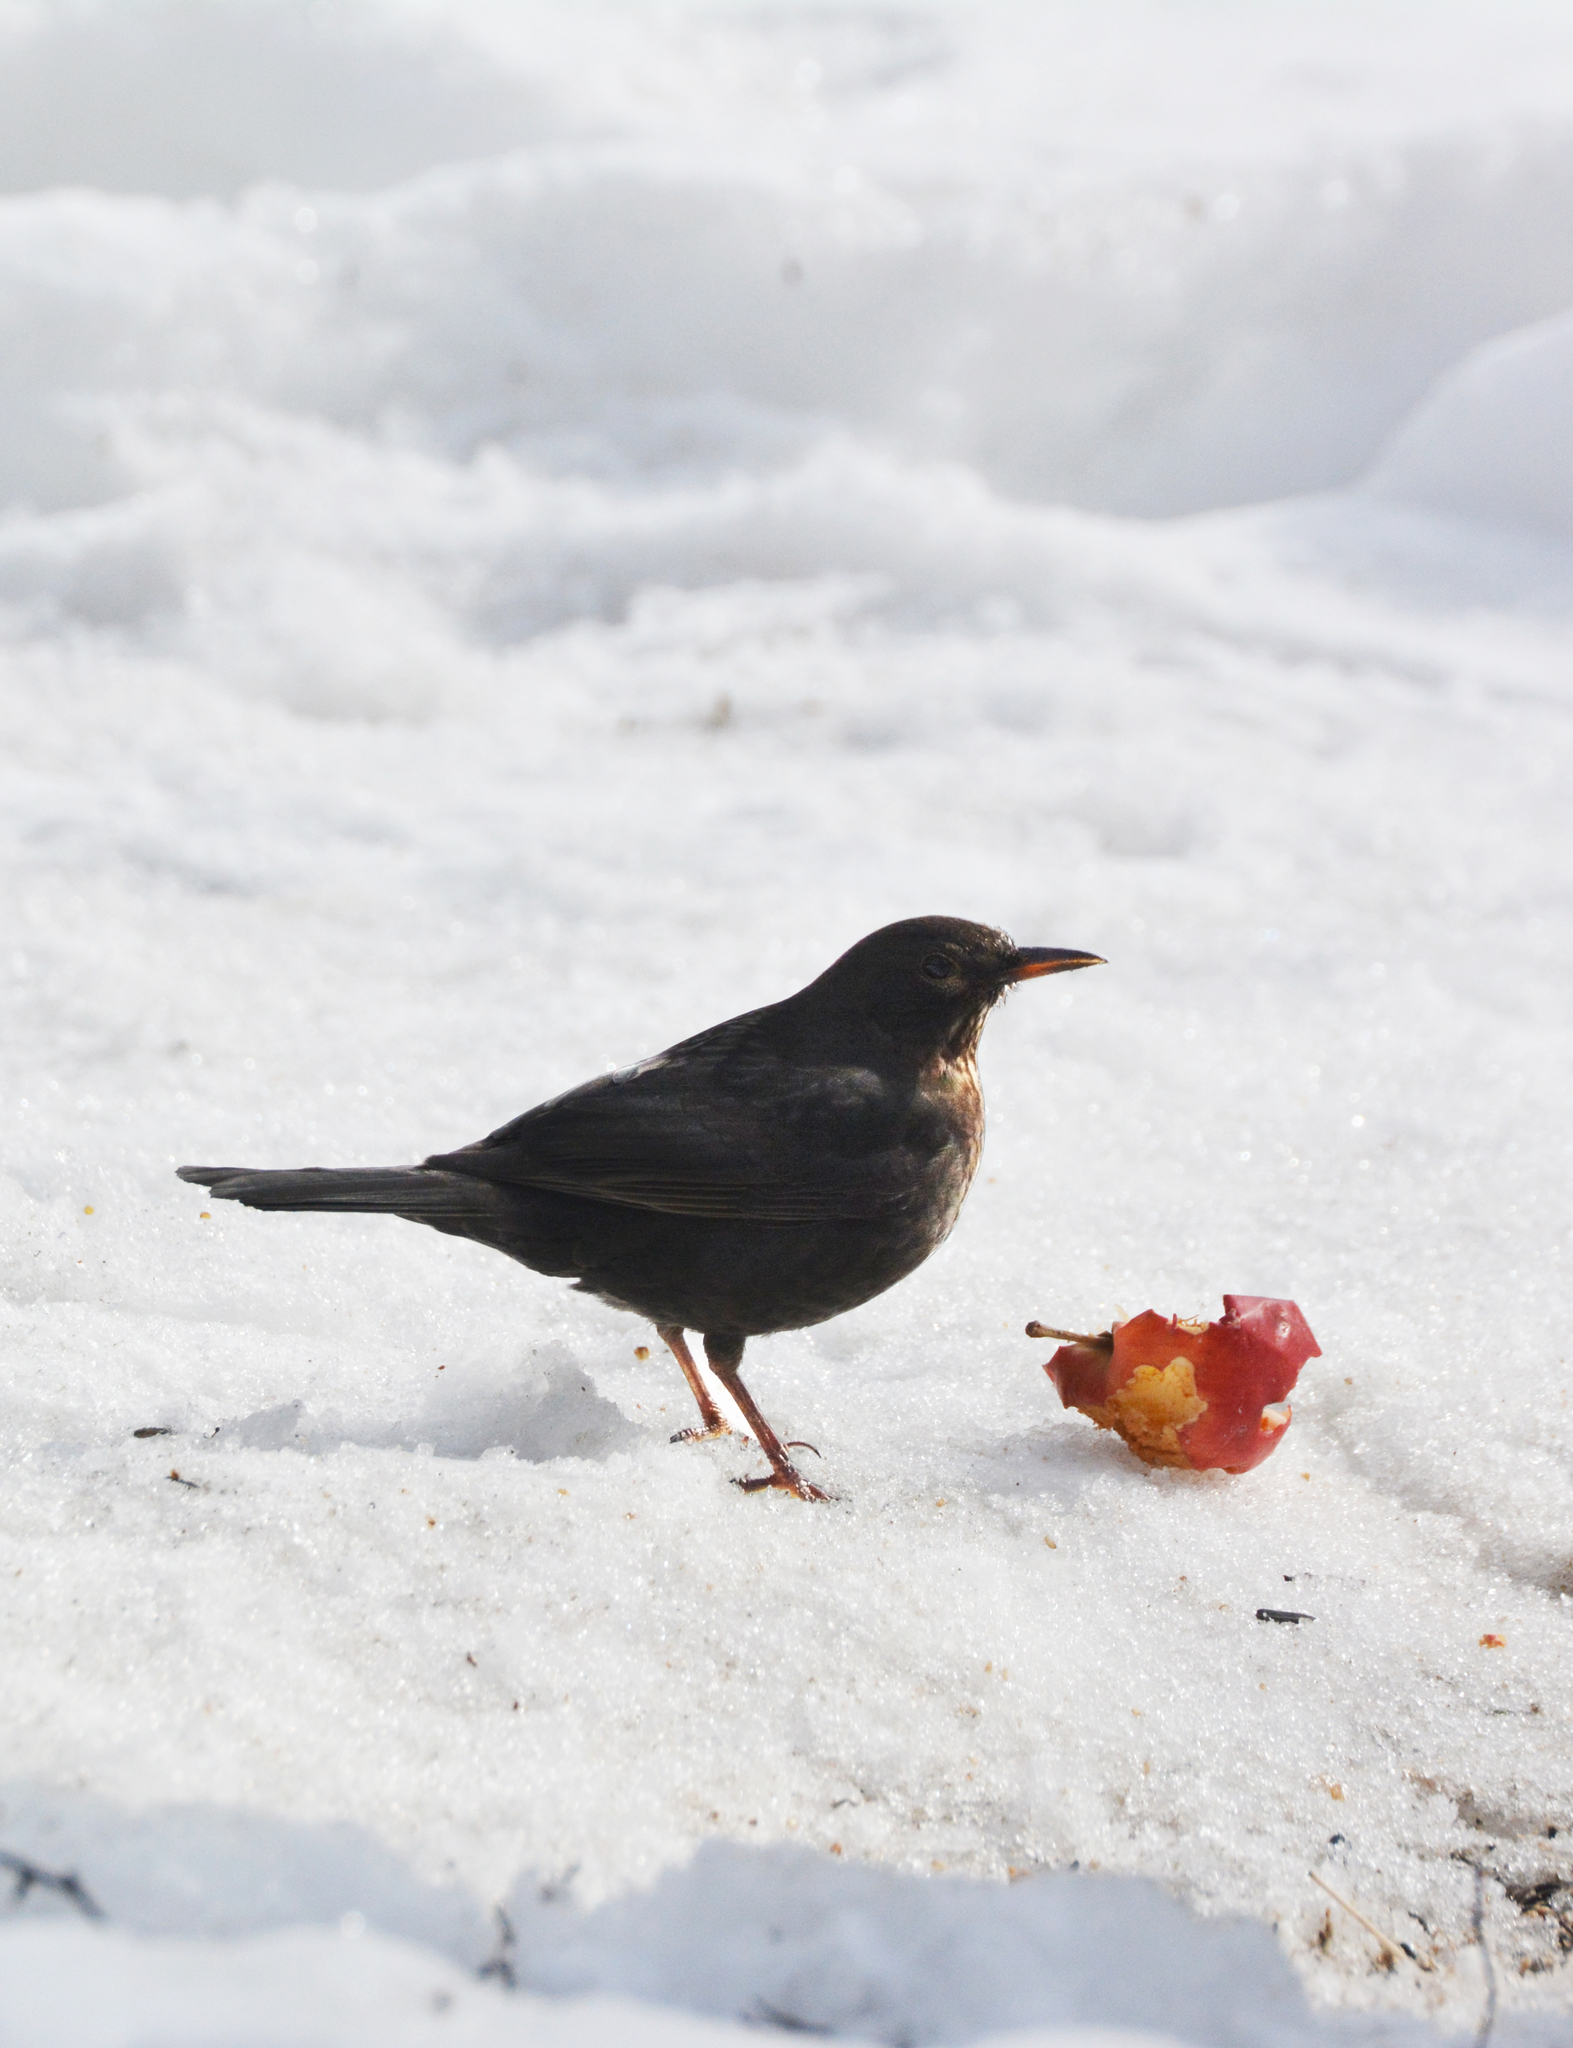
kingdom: Animalia
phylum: Chordata
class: Aves
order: Passeriformes
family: Turdidae
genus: Turdus
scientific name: Turdus merula
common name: Common blackbird
